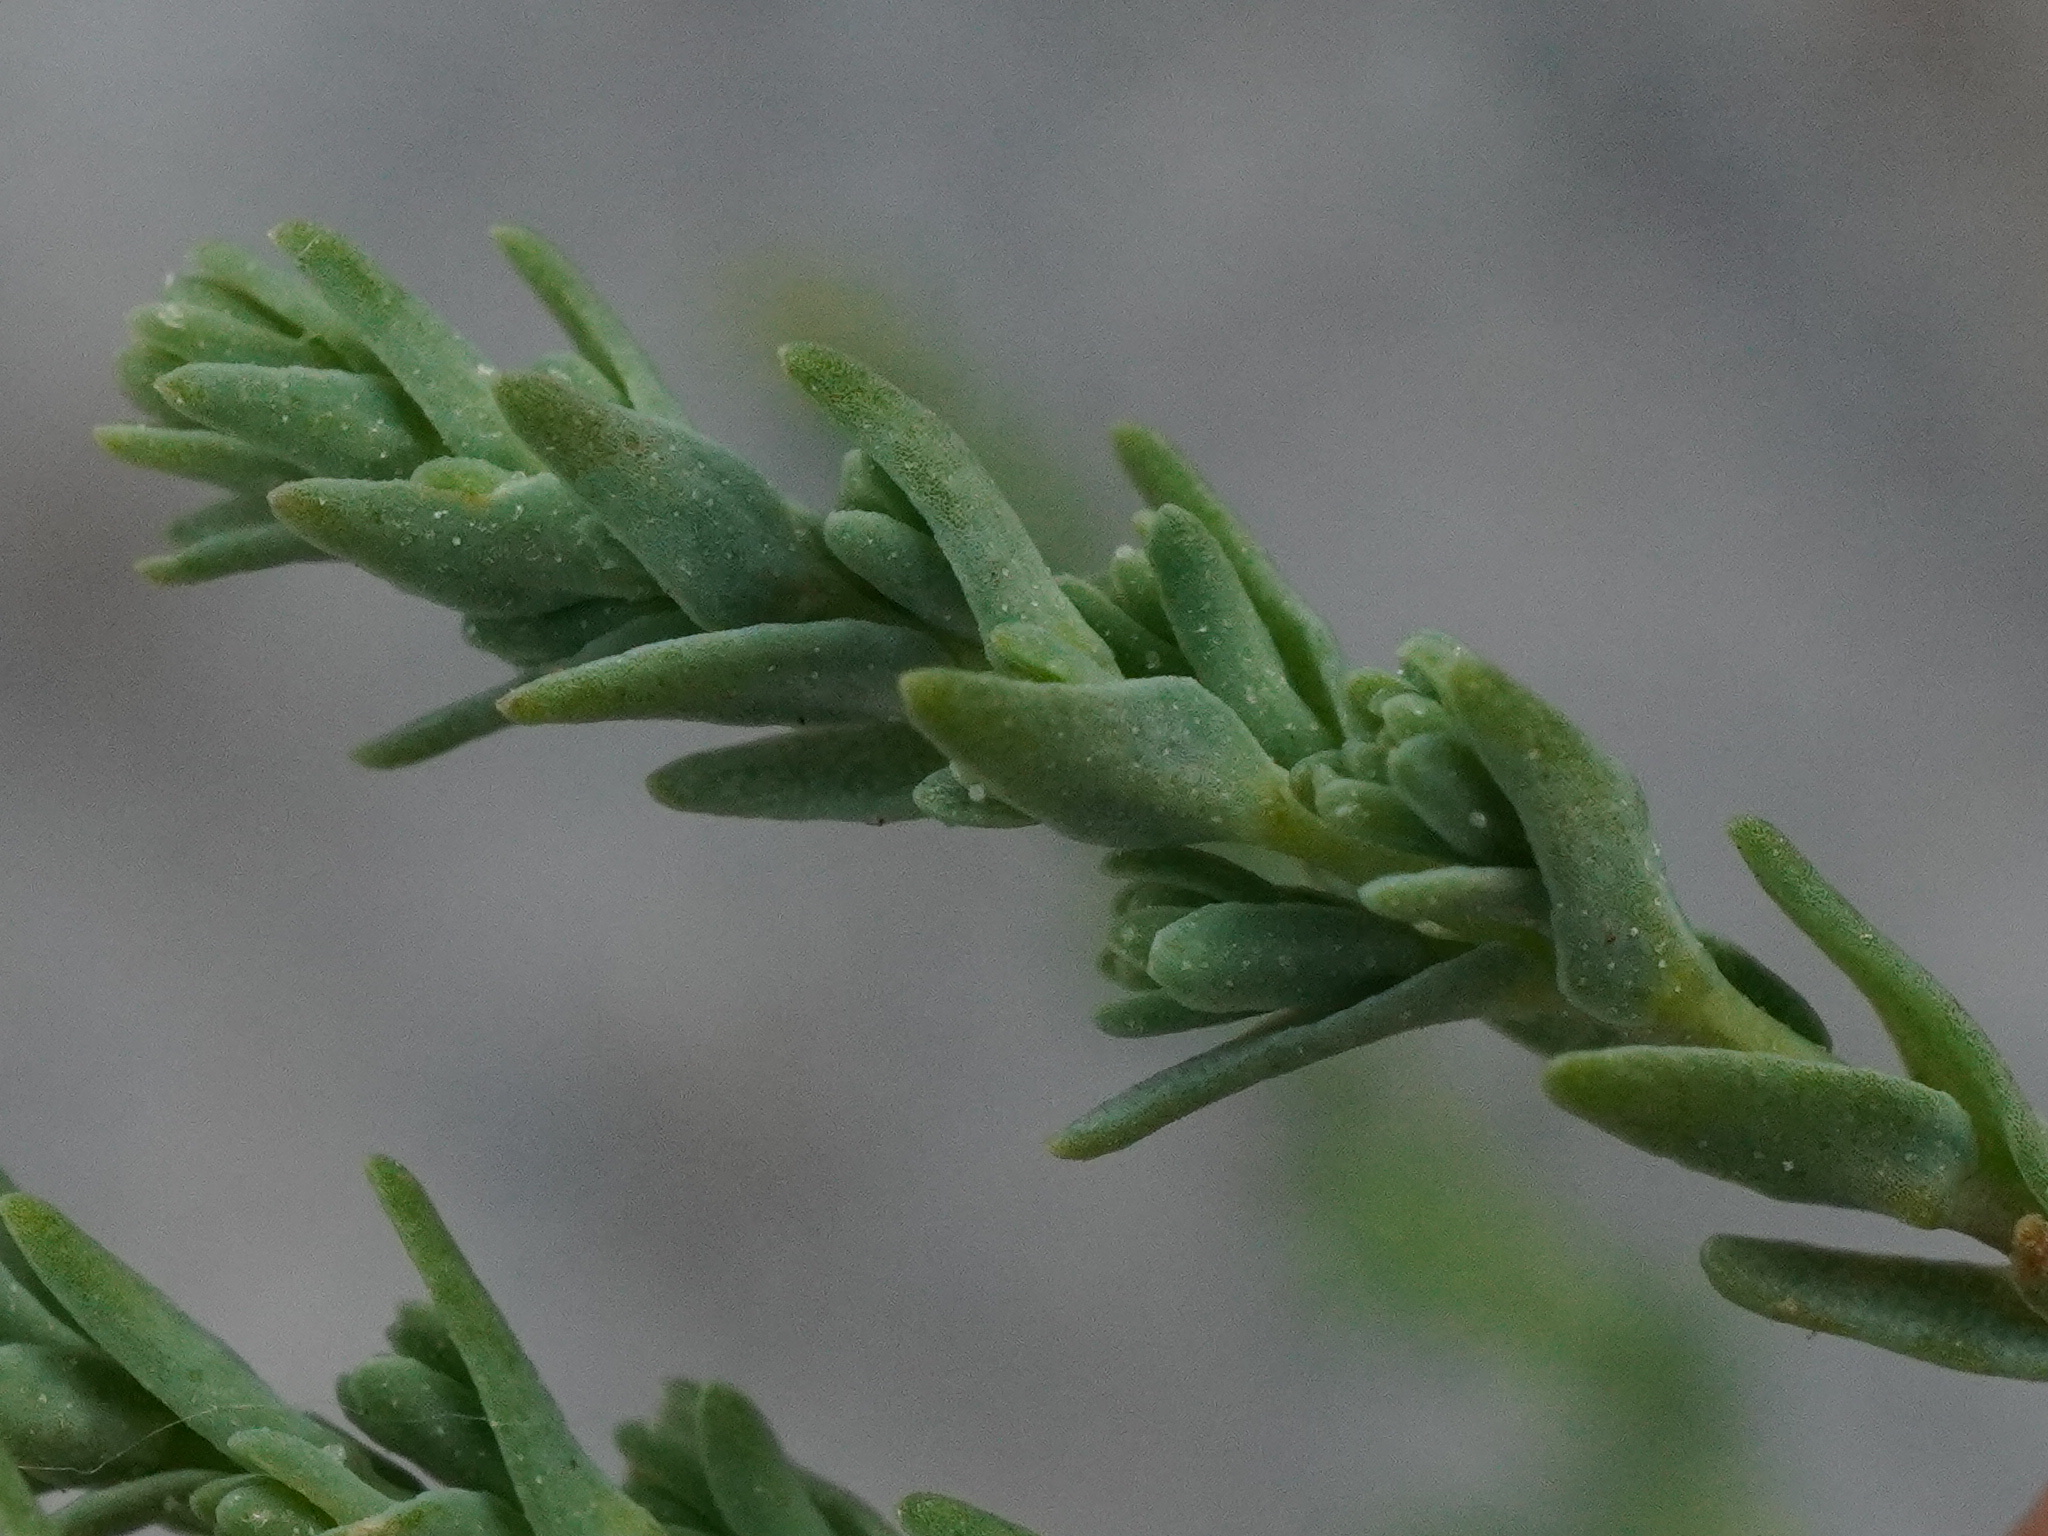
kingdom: Plantae
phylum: Tracheophyta
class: Magnoliopsida
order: Caryophyllales
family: Tamaricaceae
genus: Myricaria
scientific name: Myricaria germanica
